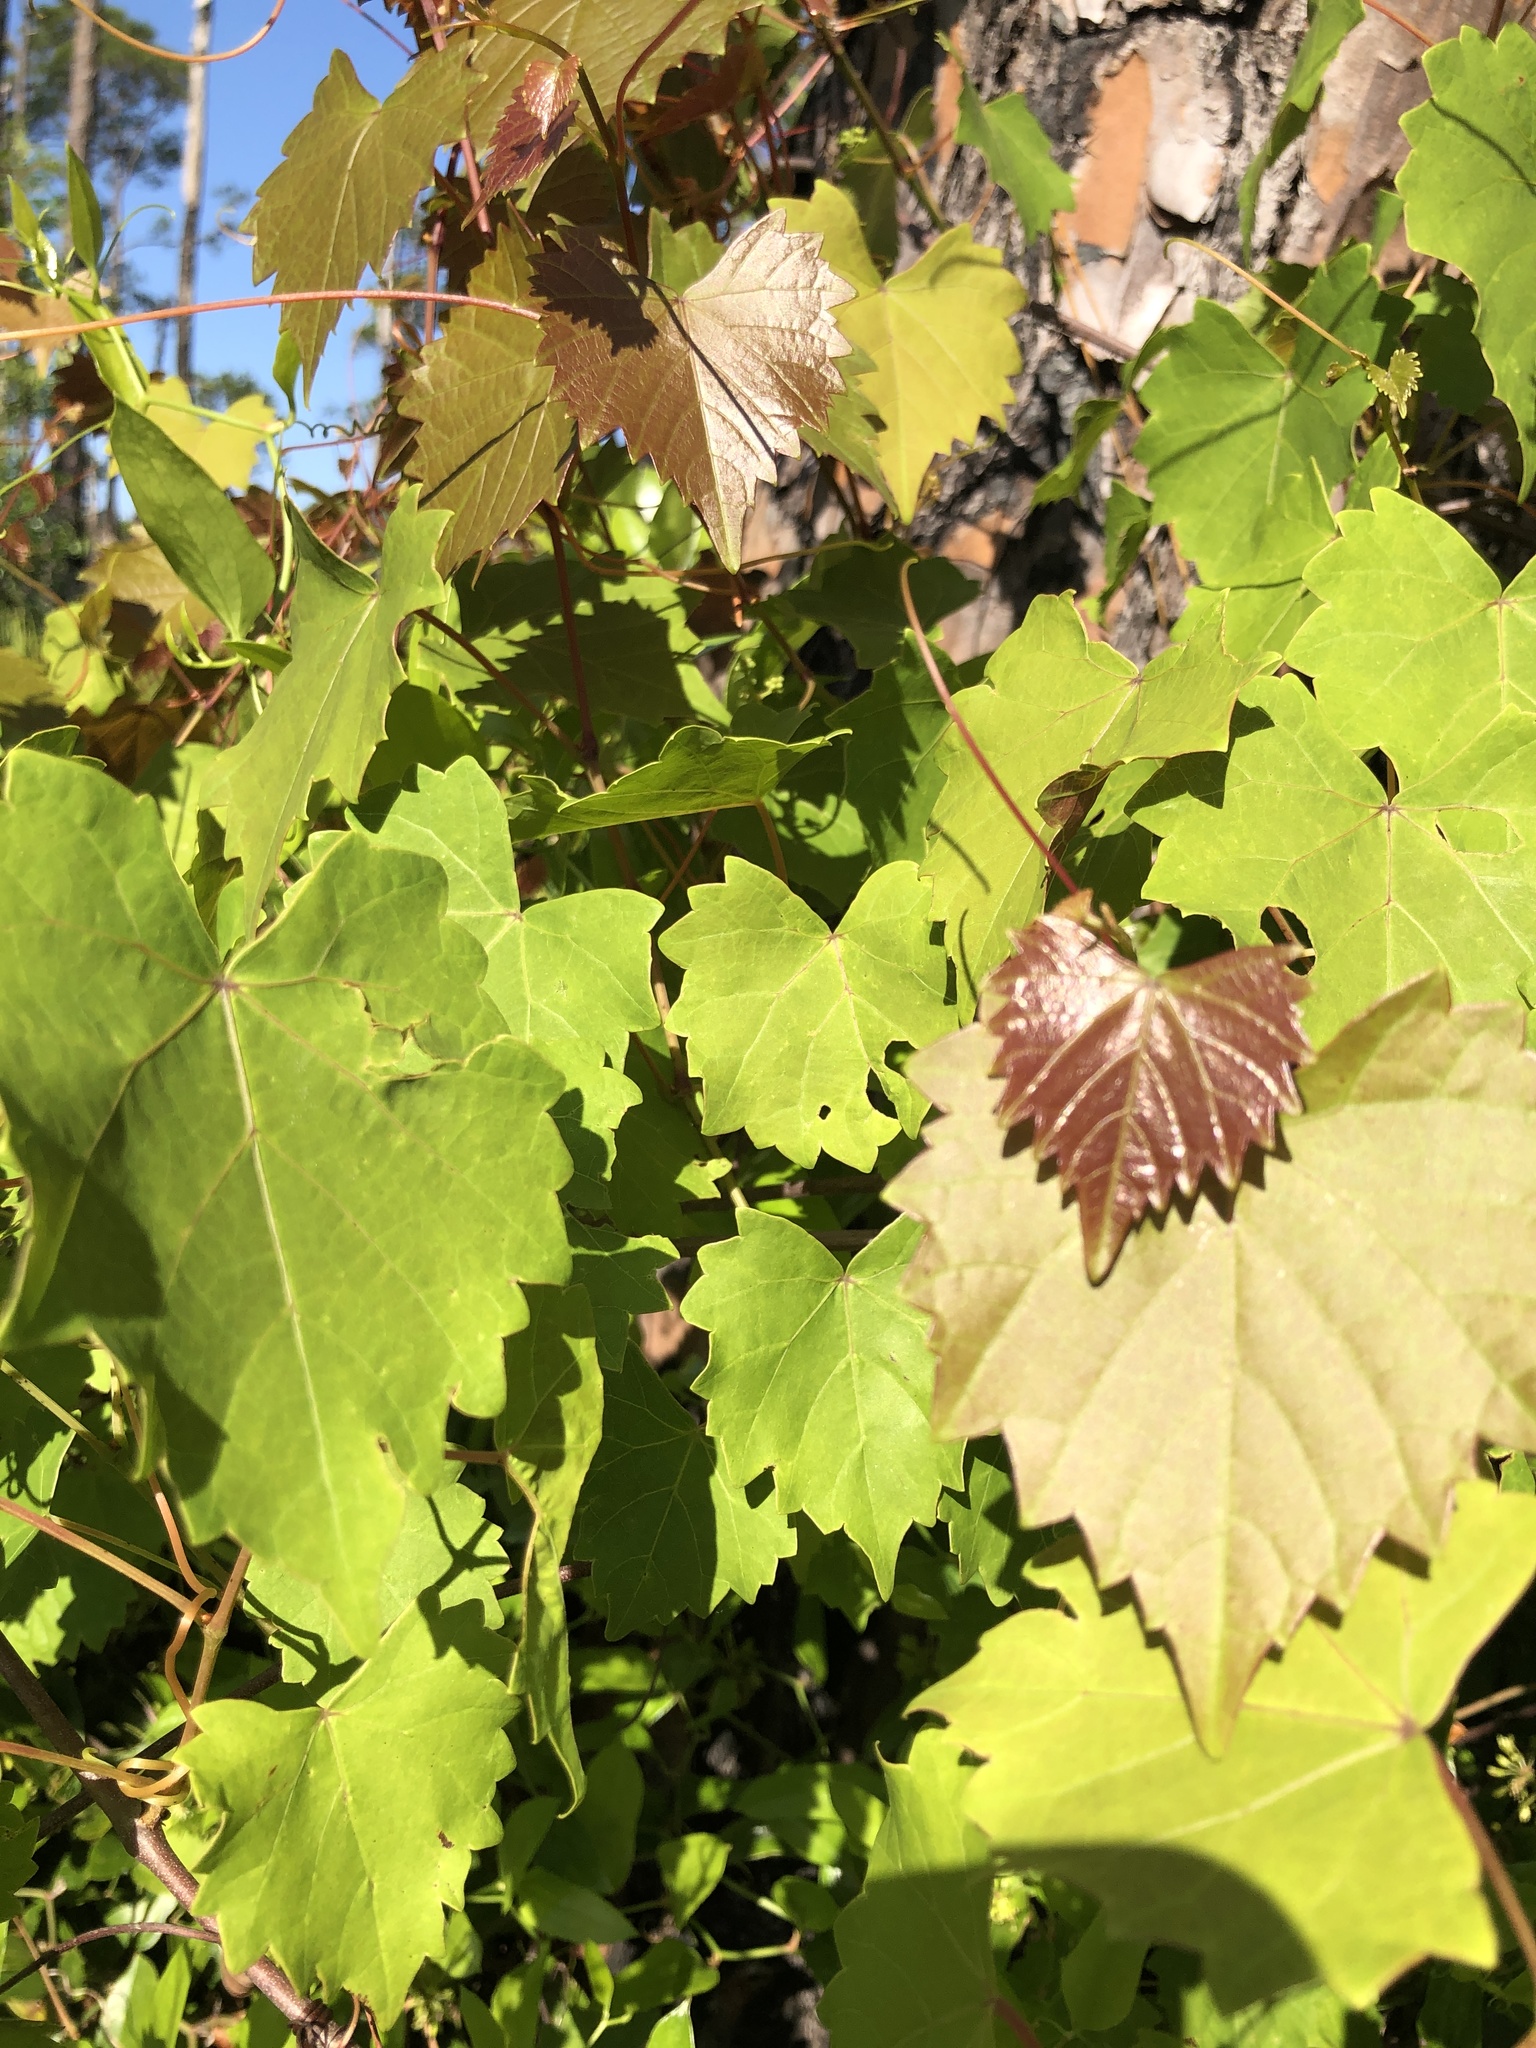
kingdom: Plantae
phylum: Tracheophyta
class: Magnoliopsida
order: Vitales
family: Vitaceae
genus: Vitis
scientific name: Vitis rotundifolia
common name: Muscadine grape
